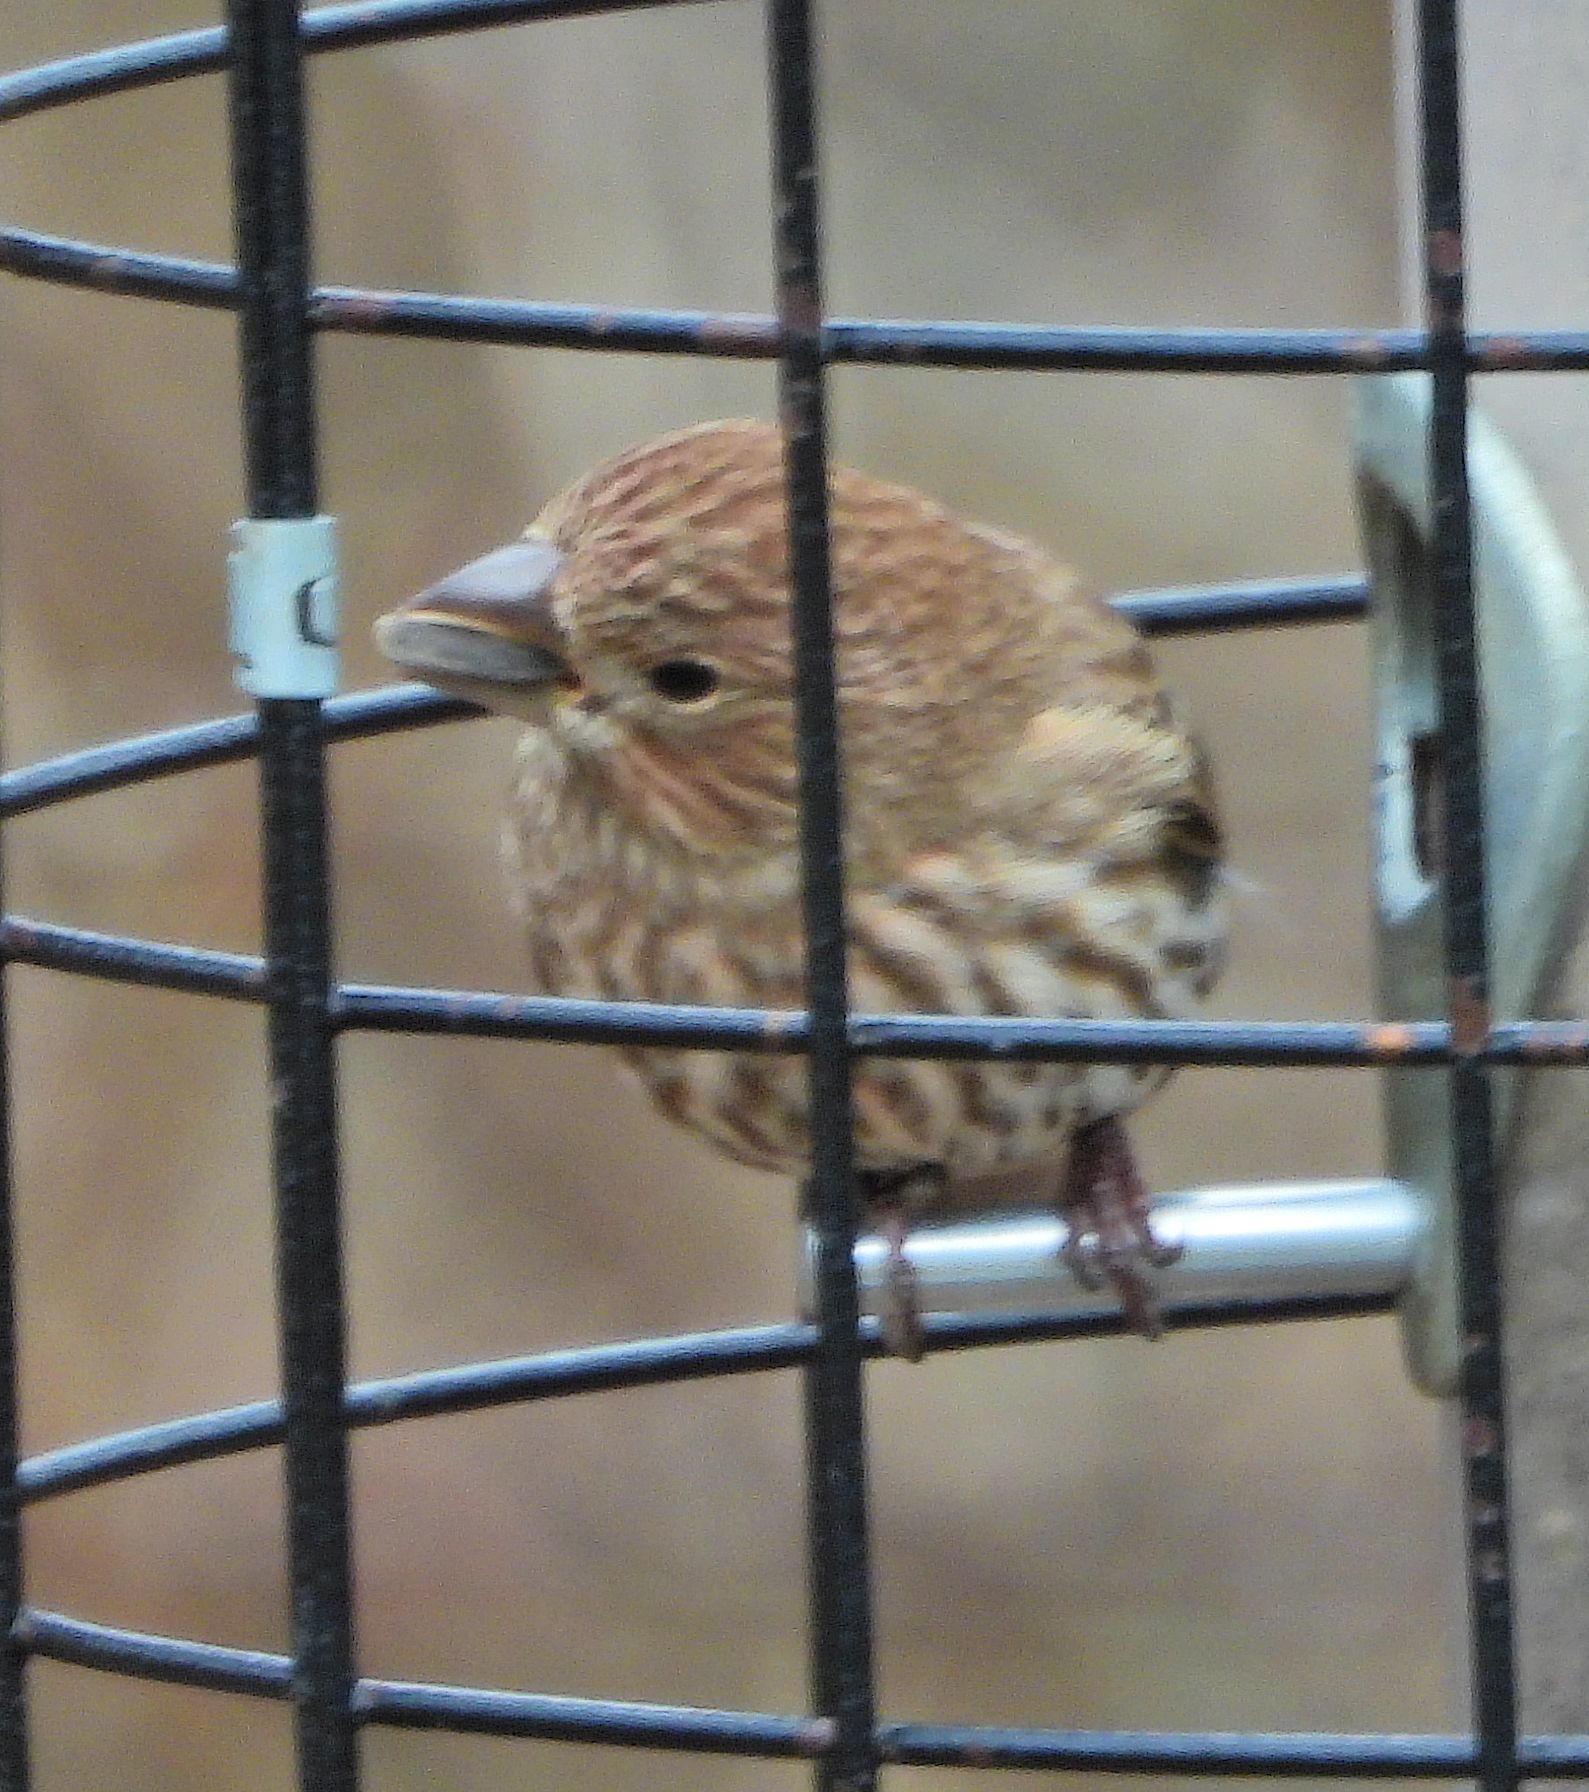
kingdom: Animalia
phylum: Chordata
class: Aves
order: Passeriformes
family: Fringillidae
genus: Haemorhous
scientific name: Haemorhous mexicanus
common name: House finch
